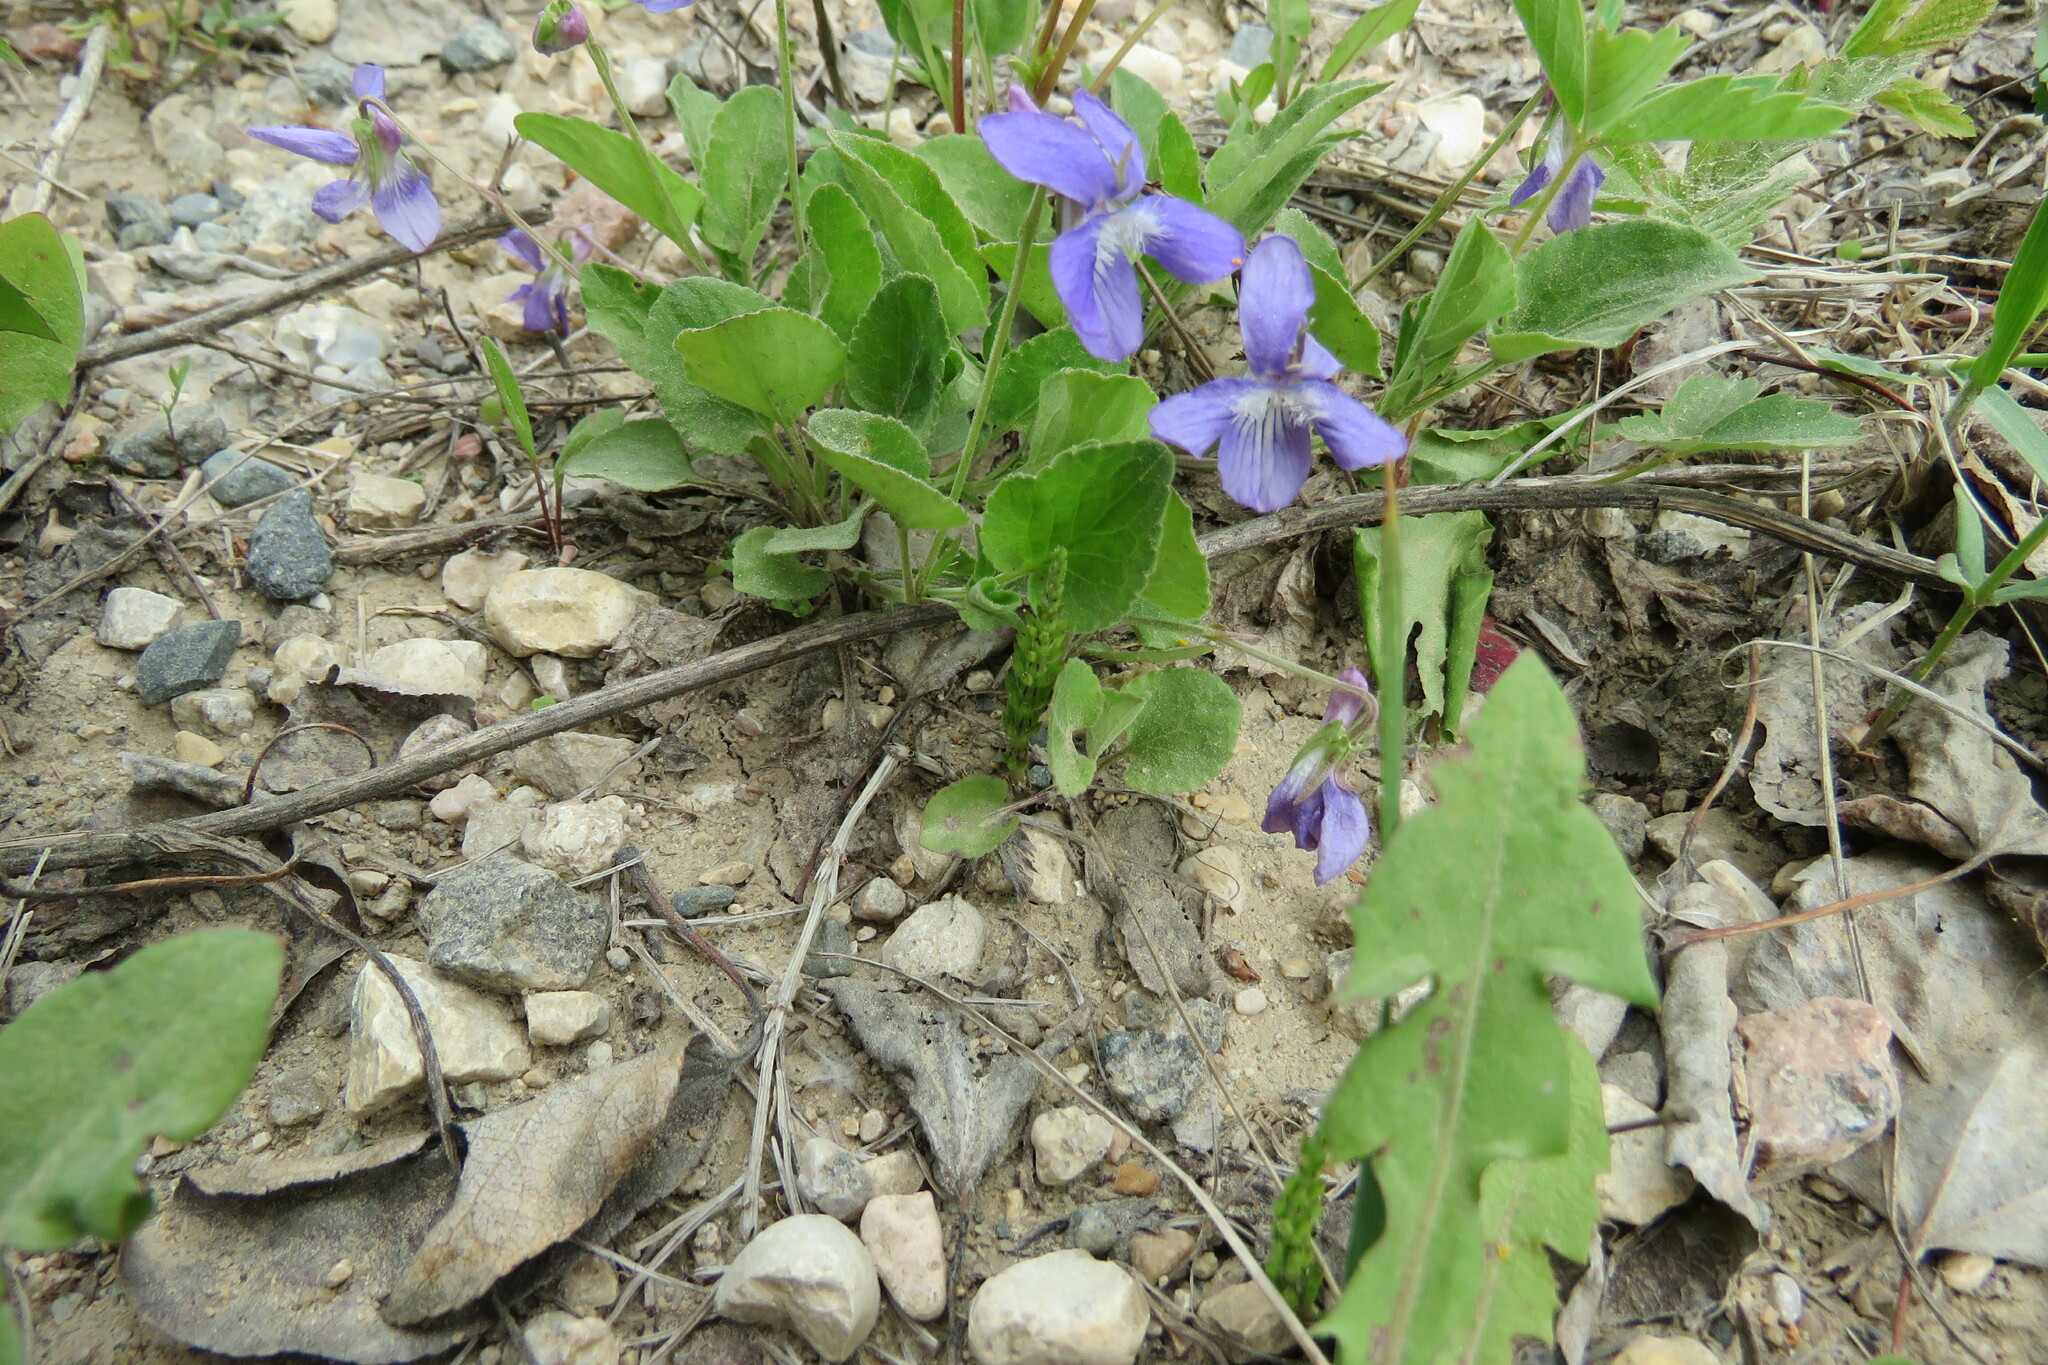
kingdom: Plantae
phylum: Tracheophyta
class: Magnoliopsida
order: Malpighiales
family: Violaceae
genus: Viola
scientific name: Viola adunca
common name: Sand violet
